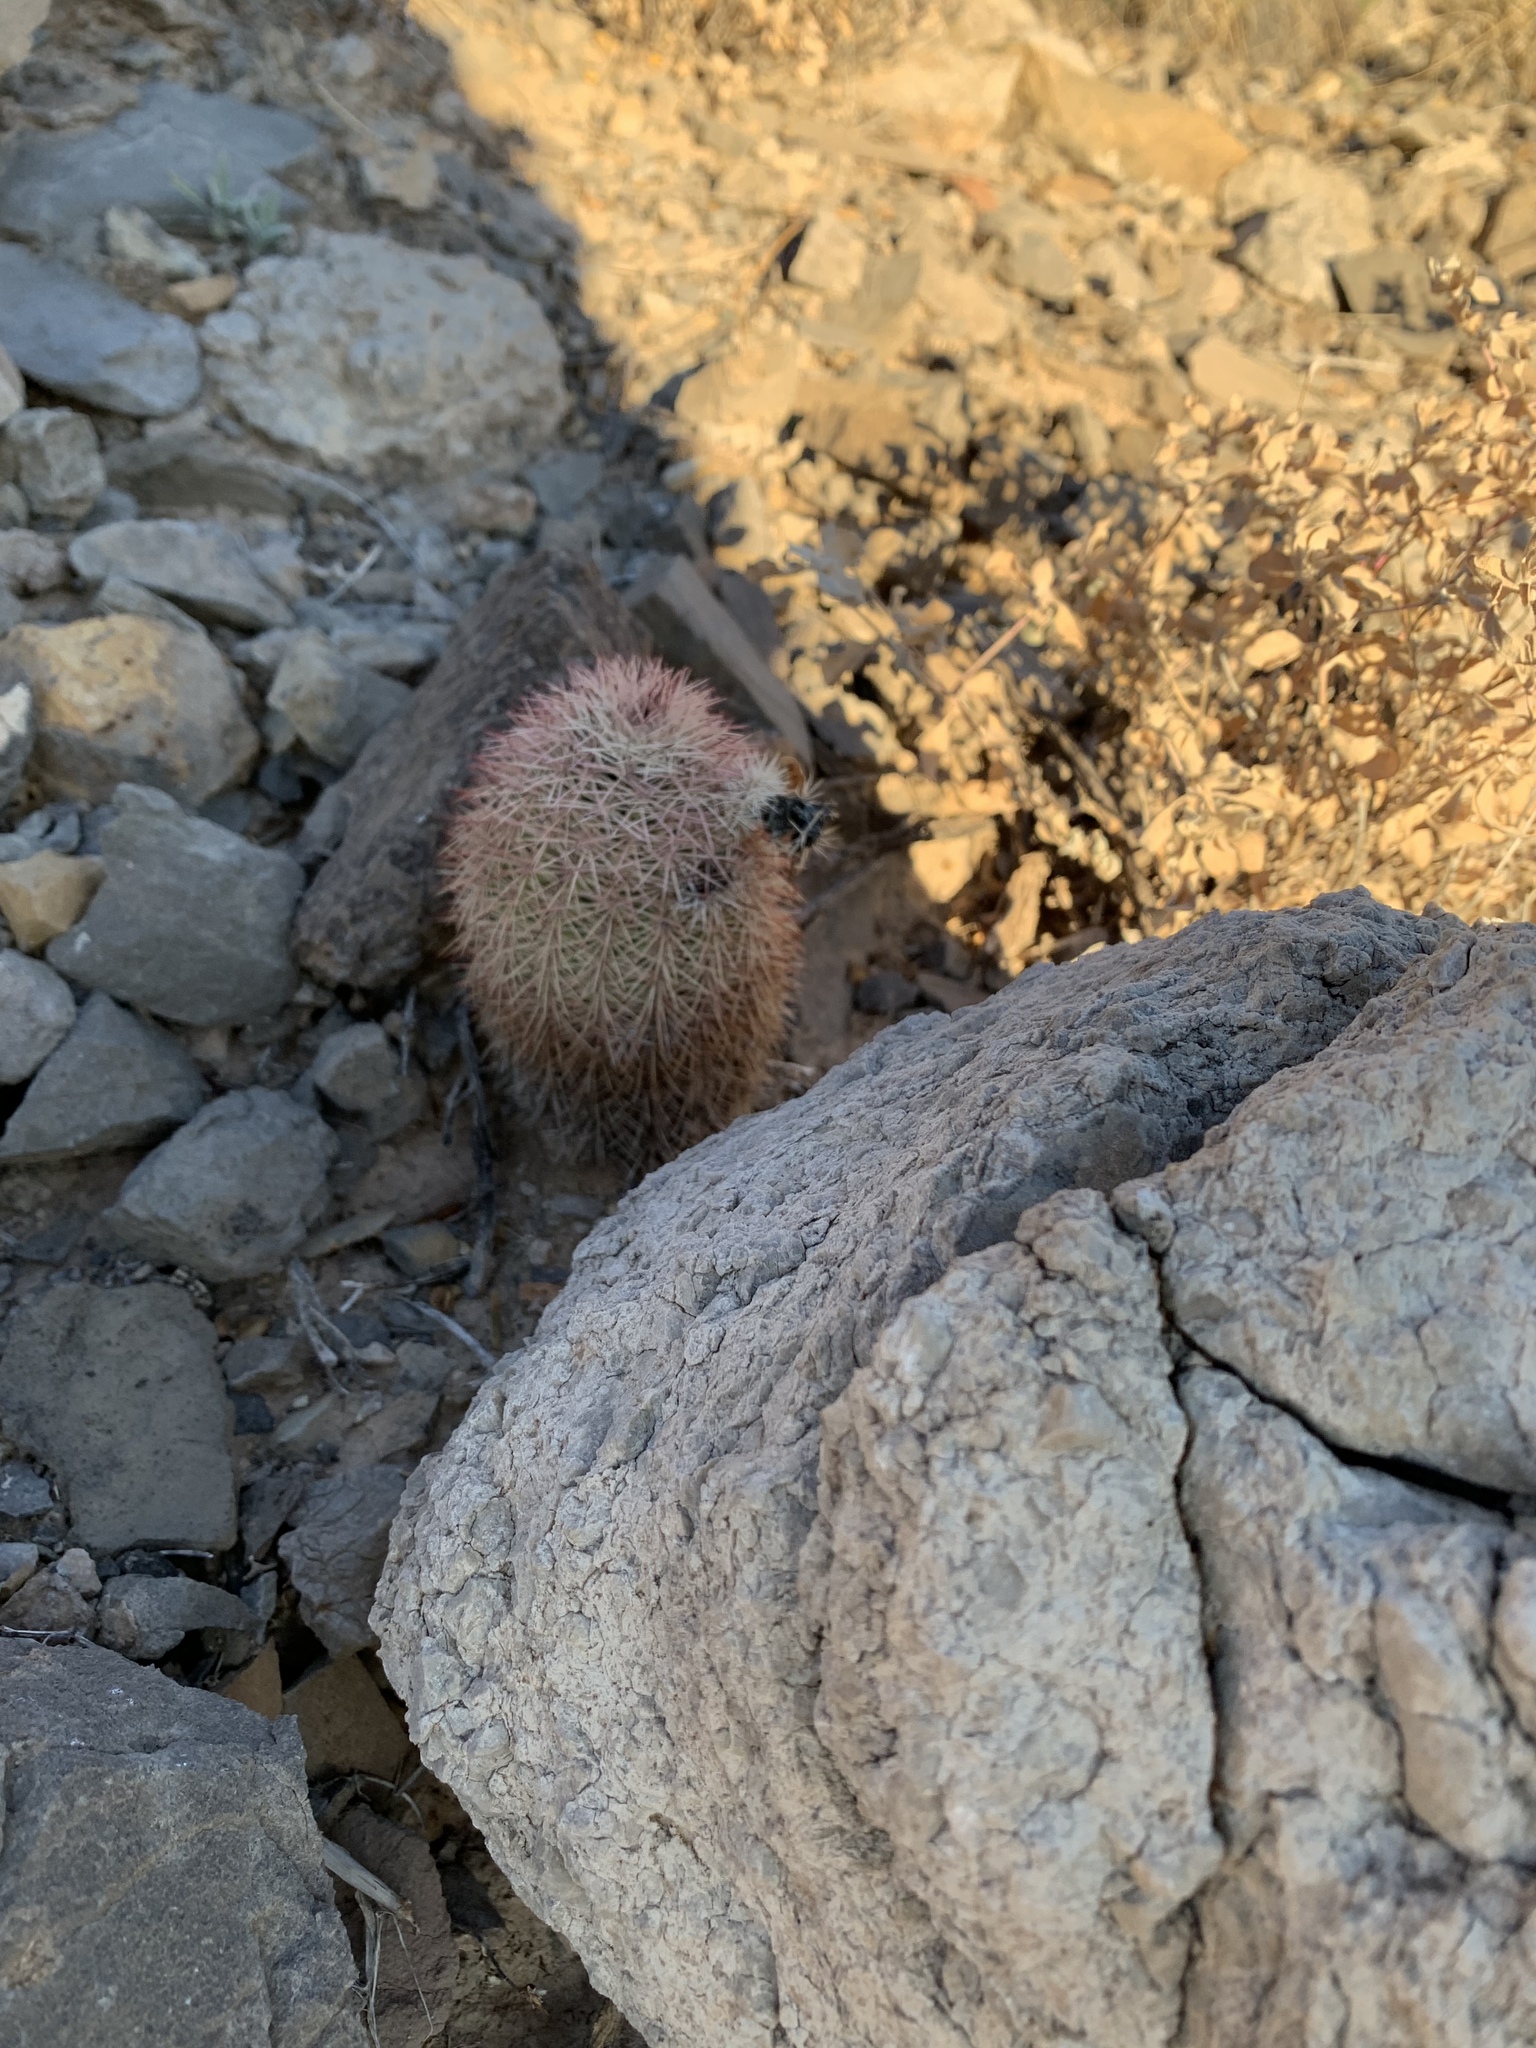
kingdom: Plantae
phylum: Tracheophyta
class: Magnoliopsida
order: Caryophyllales
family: Cactaceae
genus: Echinocereus
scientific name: Echinocereus dasyacanthus
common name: Spiny hedgehog cactus
